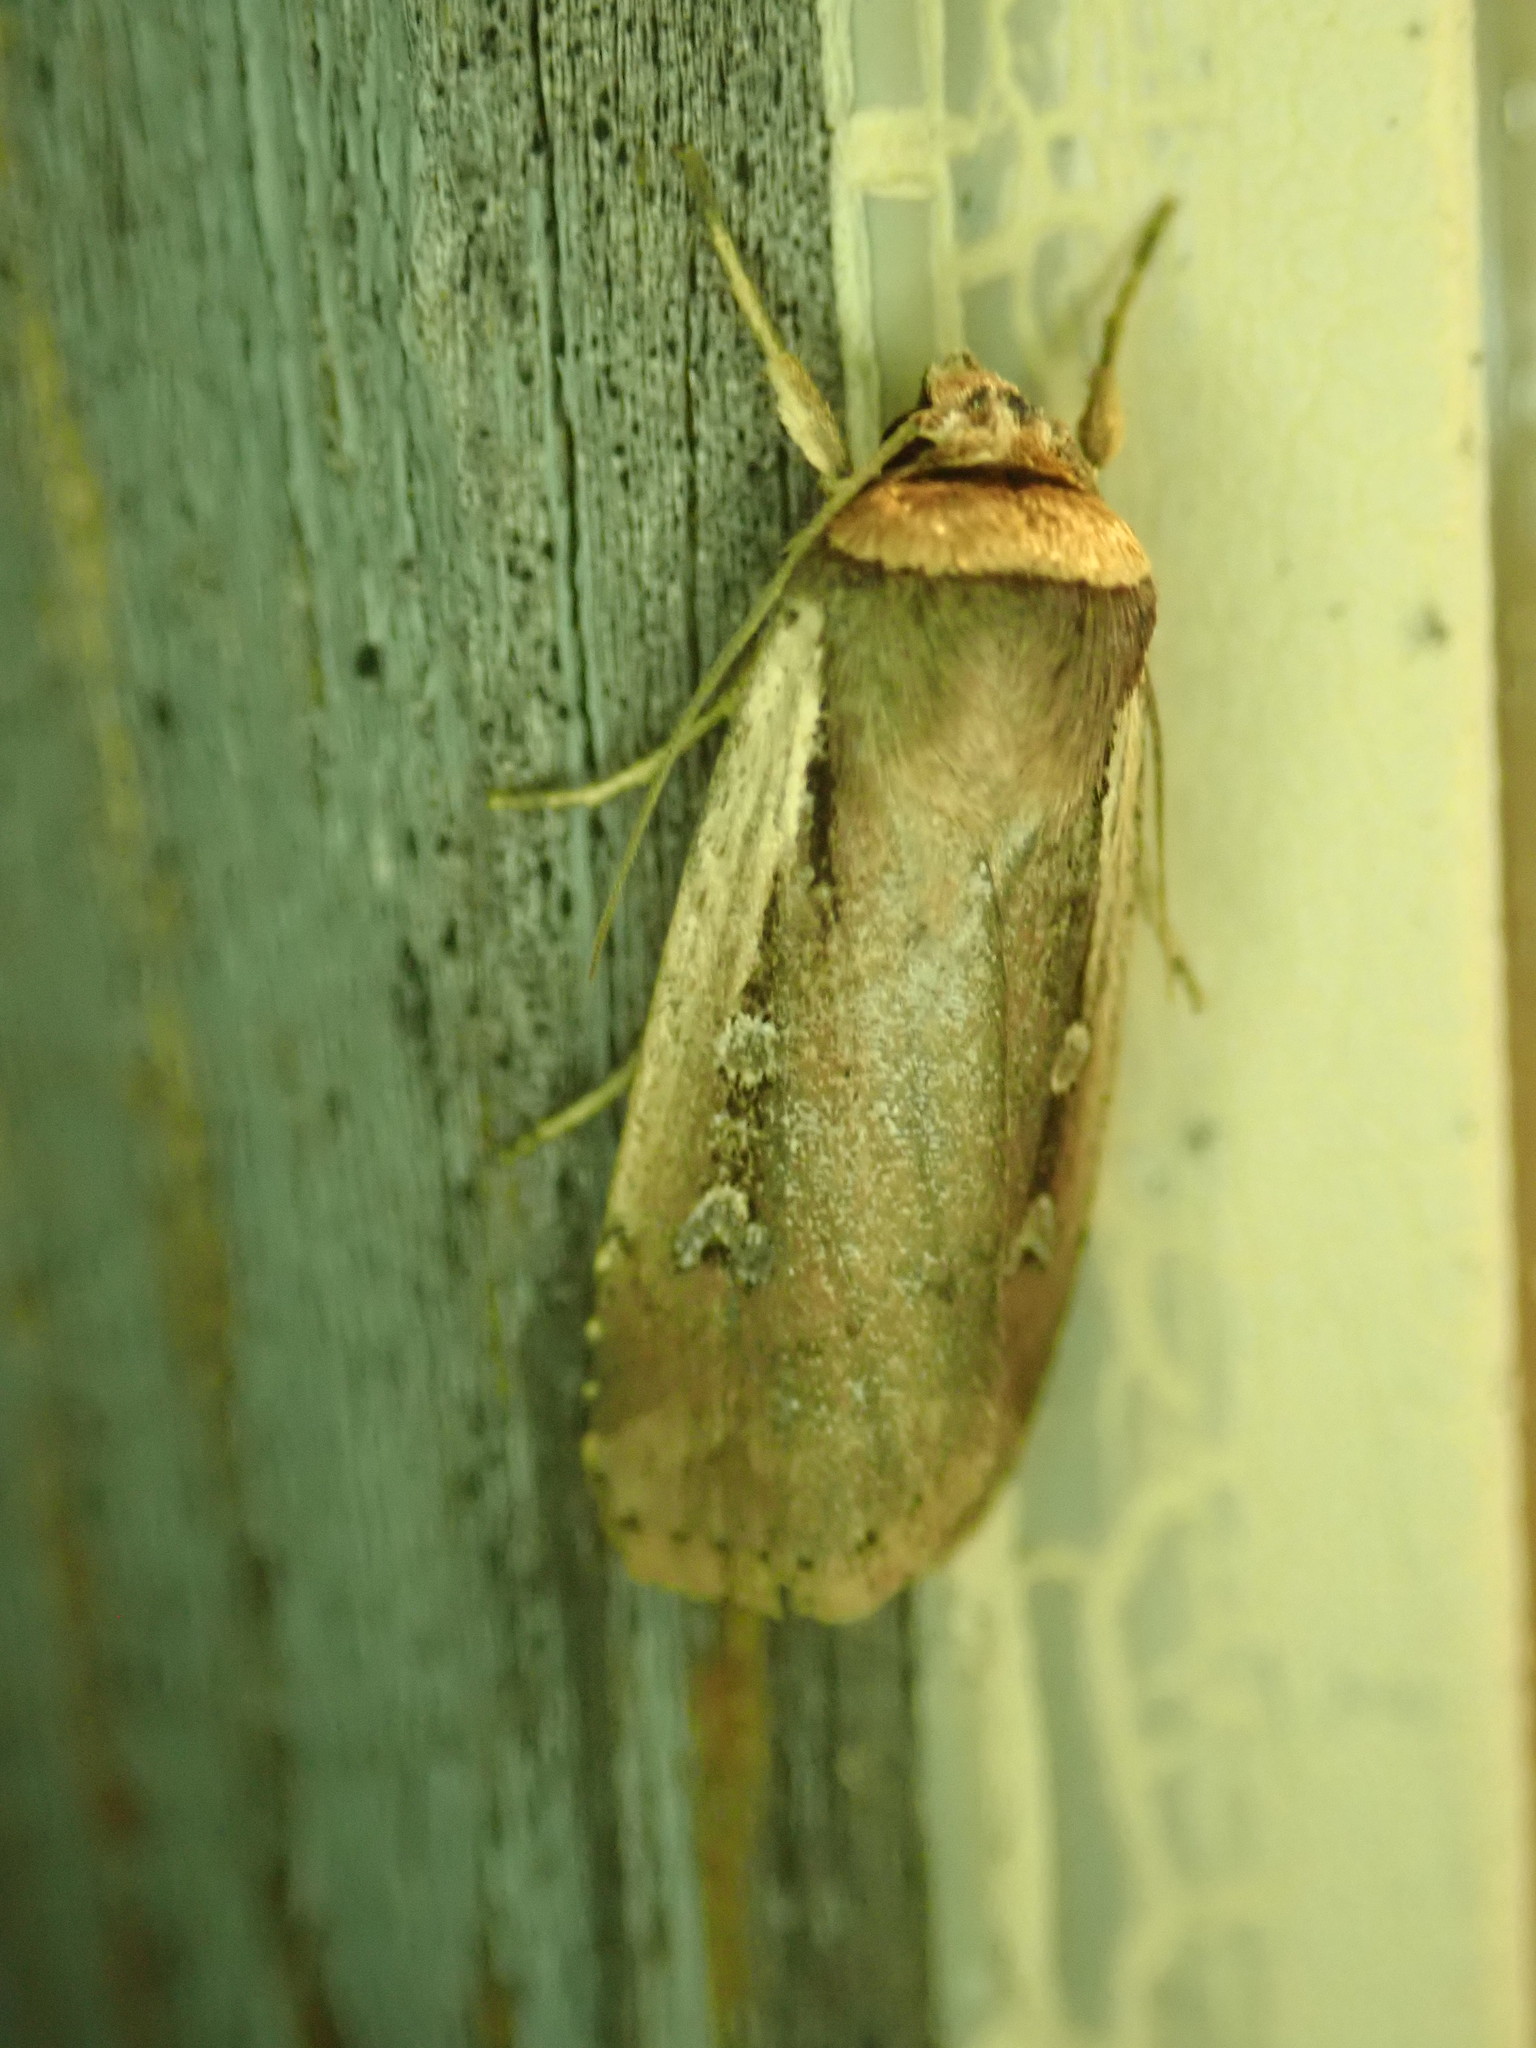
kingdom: Animalia
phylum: Arthropoda
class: Insecta
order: Lepidoptera
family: Noctuidae
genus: Ochropleura
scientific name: Ochropleura implecta
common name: Flame-shouldered dart
